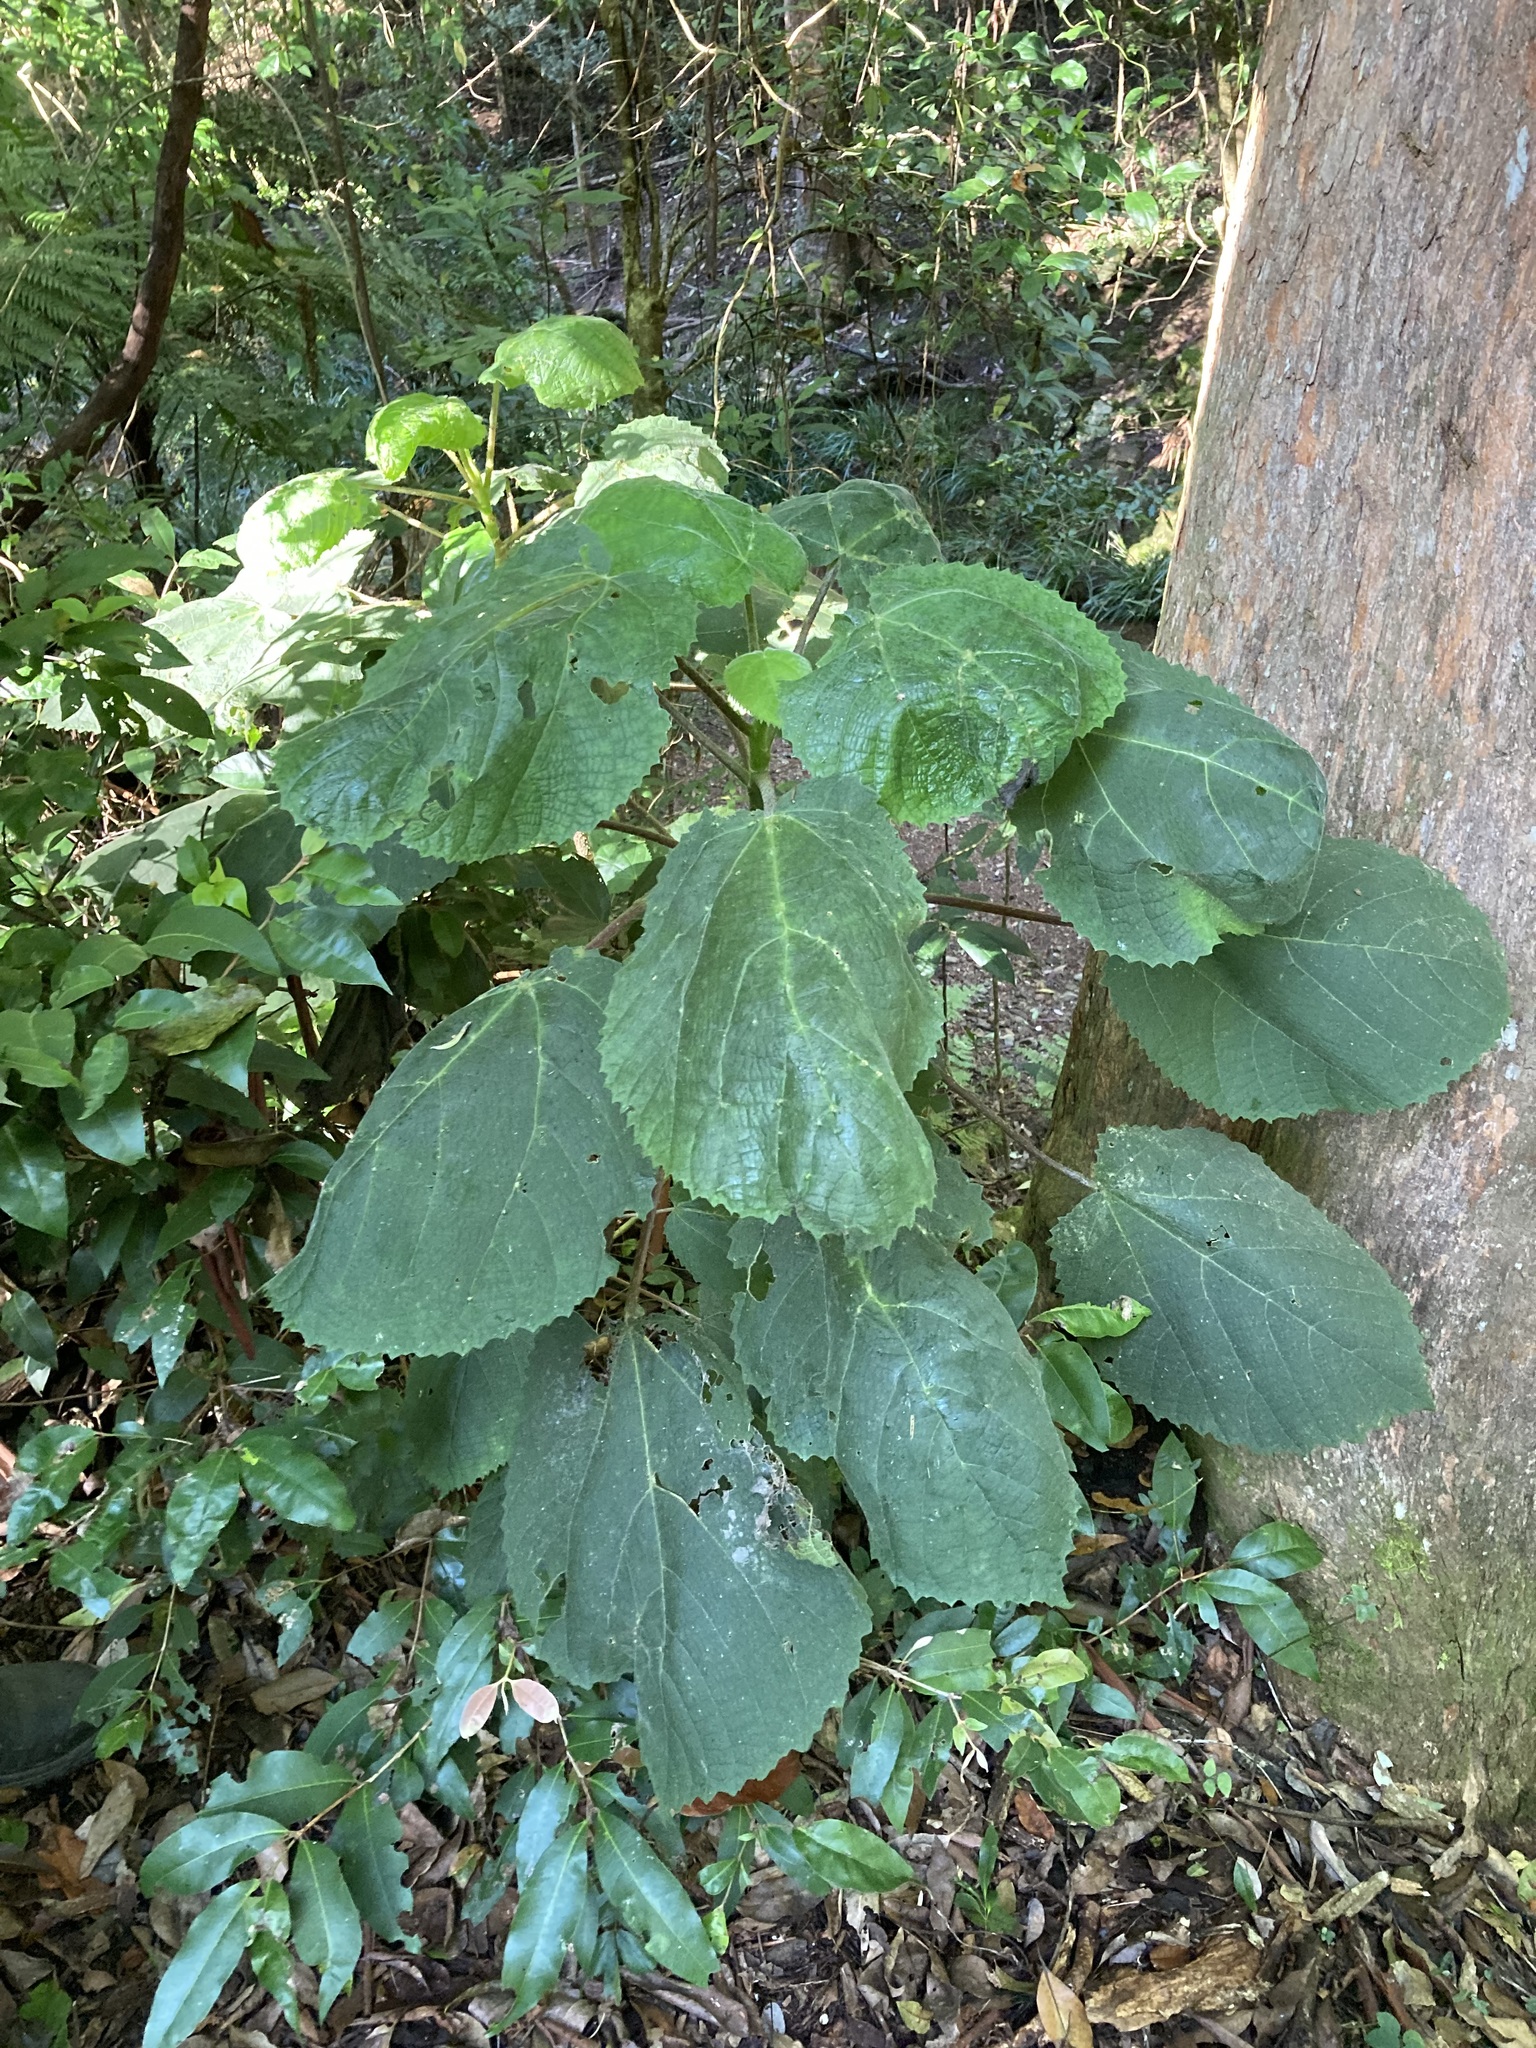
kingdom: Plantae
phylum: Tracheophyta
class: Magnoliopsida
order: Rosales
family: Urticaceae
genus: Dendrocnide
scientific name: Dendrocnide excelsa
